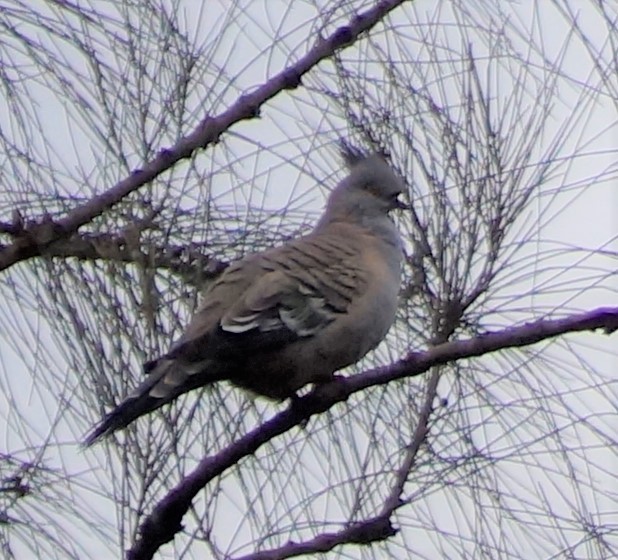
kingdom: Animalia
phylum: Chordata
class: Aves
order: Columbiformes
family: Columbidae
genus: Ocyphaps
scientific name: Ocyphaps lophotes
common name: Crested pigeon
